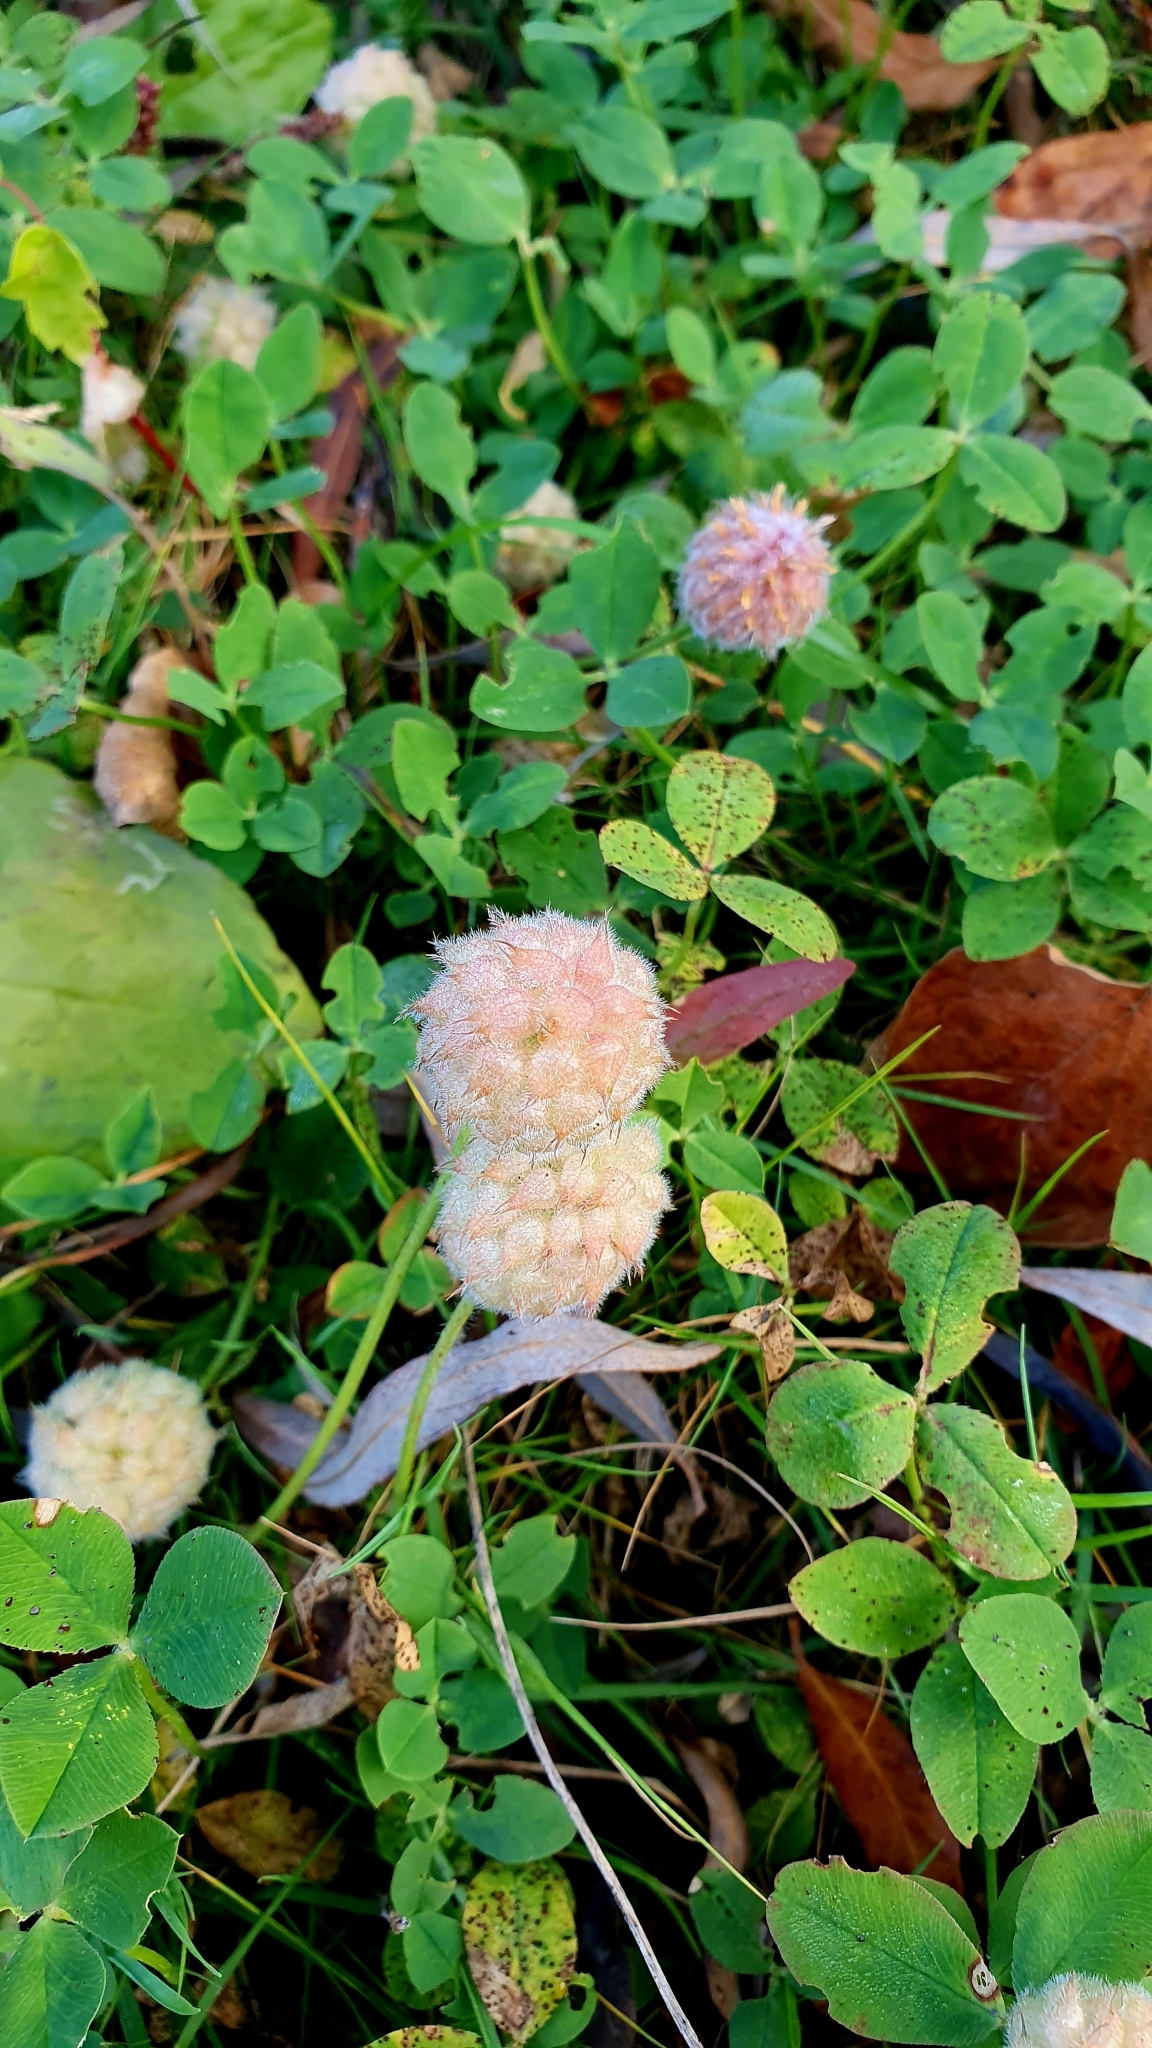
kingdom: Plantae
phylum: Tracheophyta
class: Magnoliopsida
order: Fabales
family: Fabaceae
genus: Trifolium
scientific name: Trifolium fragiferum
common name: Strawberry clover
